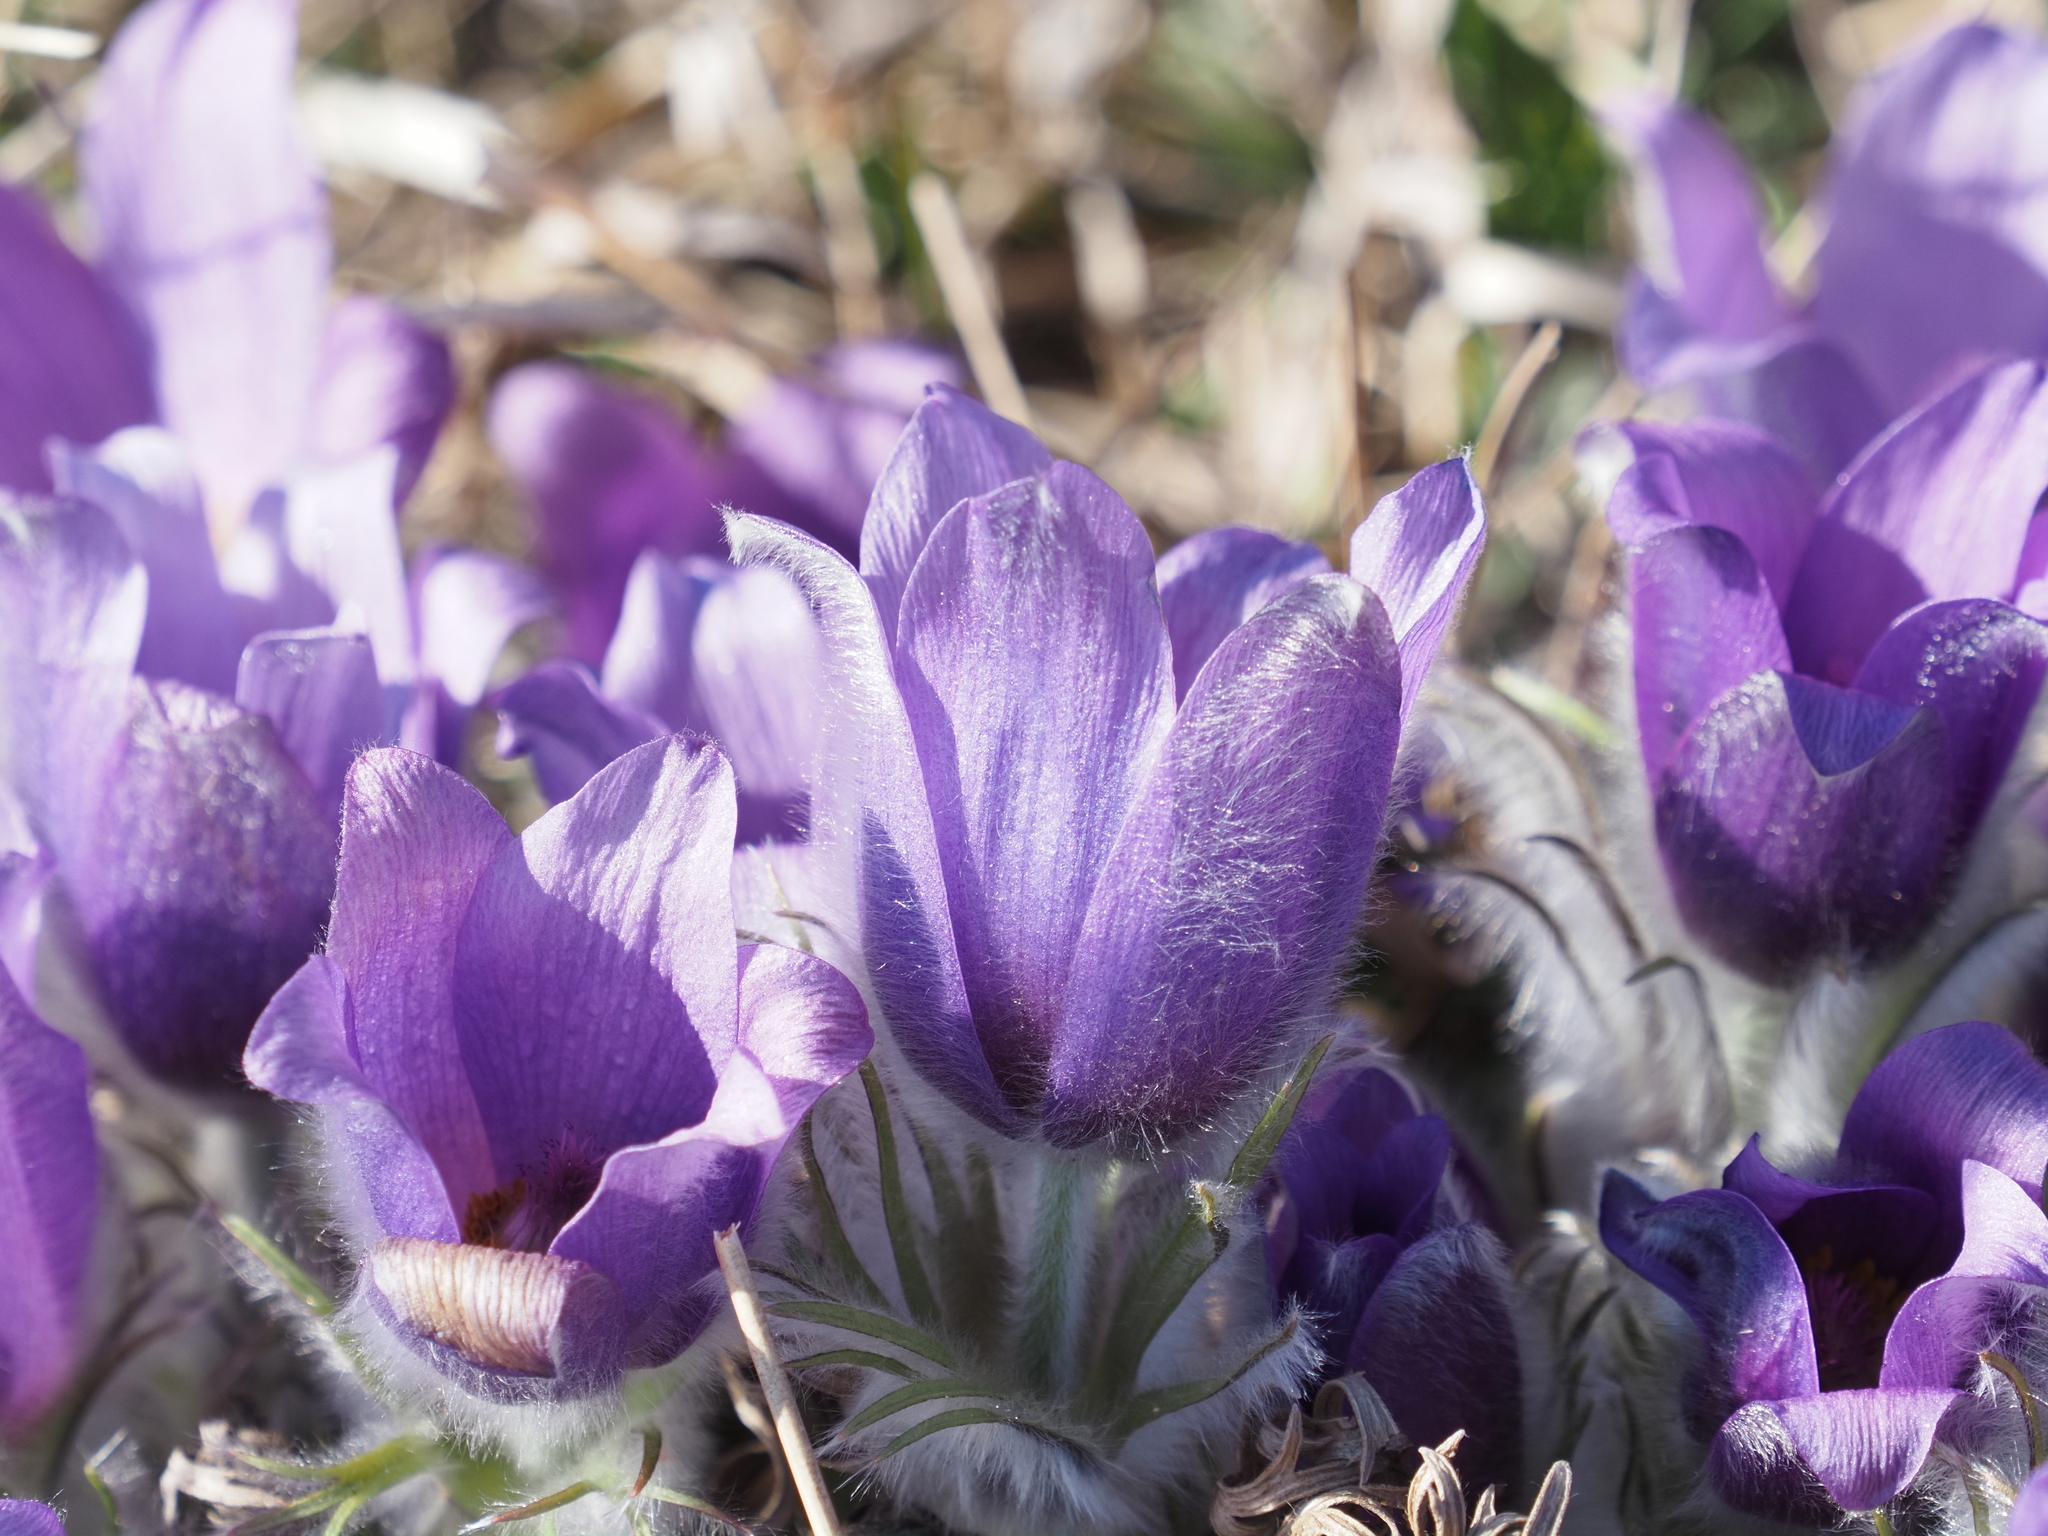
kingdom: Plantae
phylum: Tracheophyta
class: Magnoliopsida
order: Ranunculales
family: Ranunculaceae
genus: Pulsatilla
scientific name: Pulsatilla grandis
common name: Greater pasque flower
